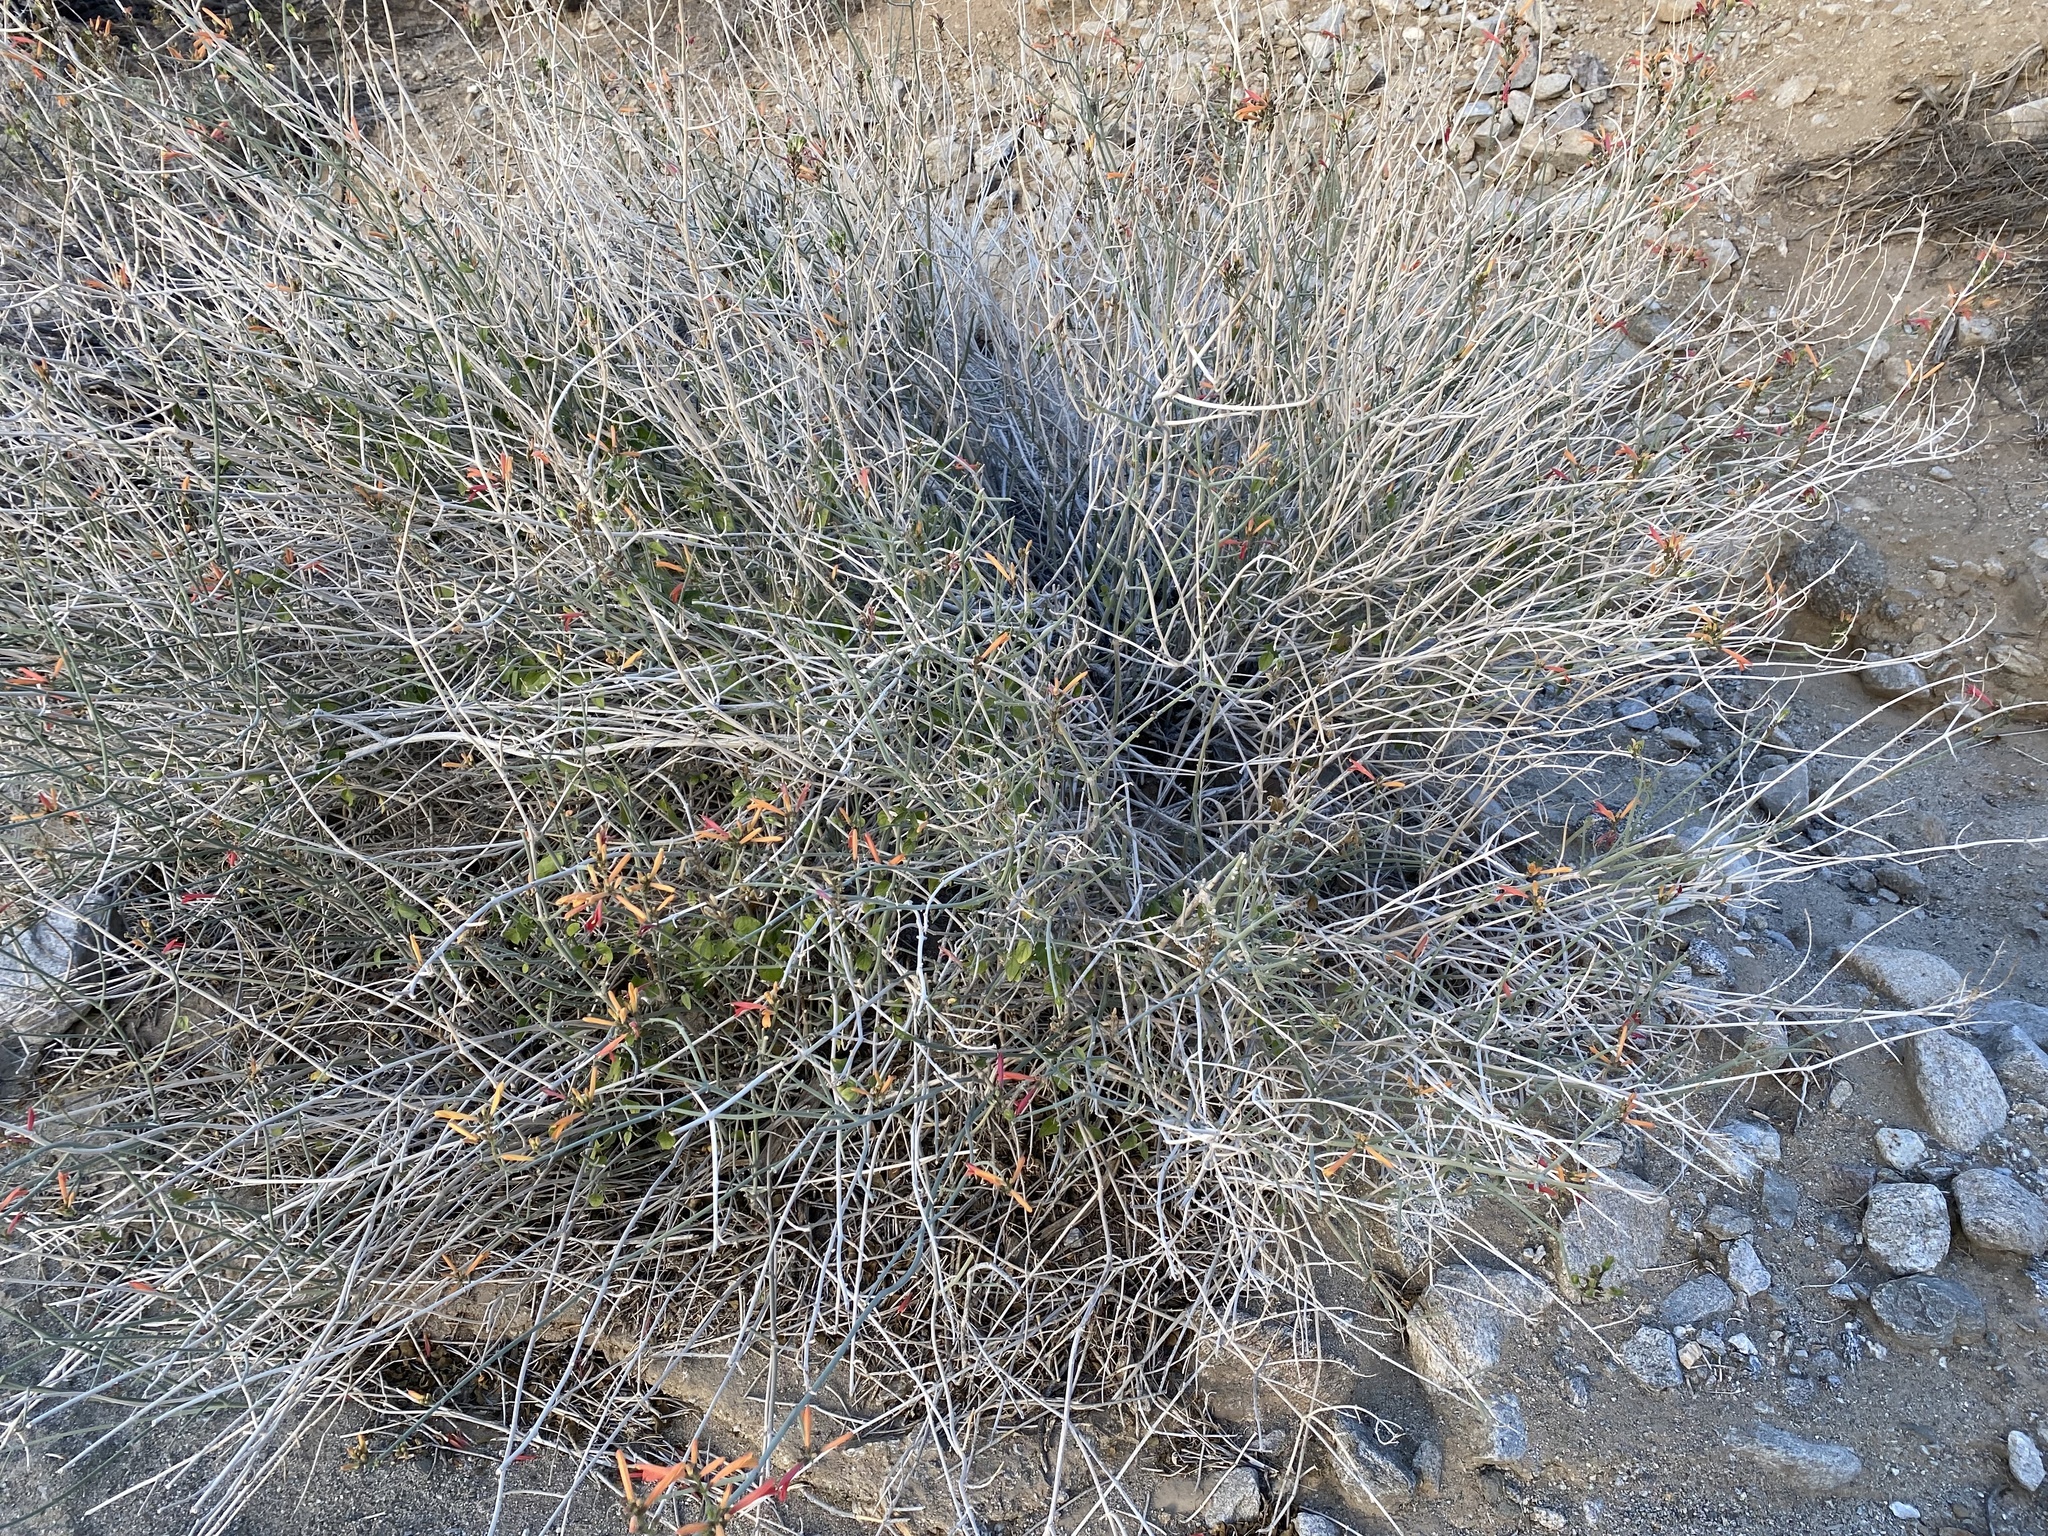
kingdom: Plantae
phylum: Tracheophyta
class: Magnoliopsida
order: Lamiales
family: Acanthaceae
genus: Justicia
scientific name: Justicia californica
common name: Chuparosa-honeysuckle
